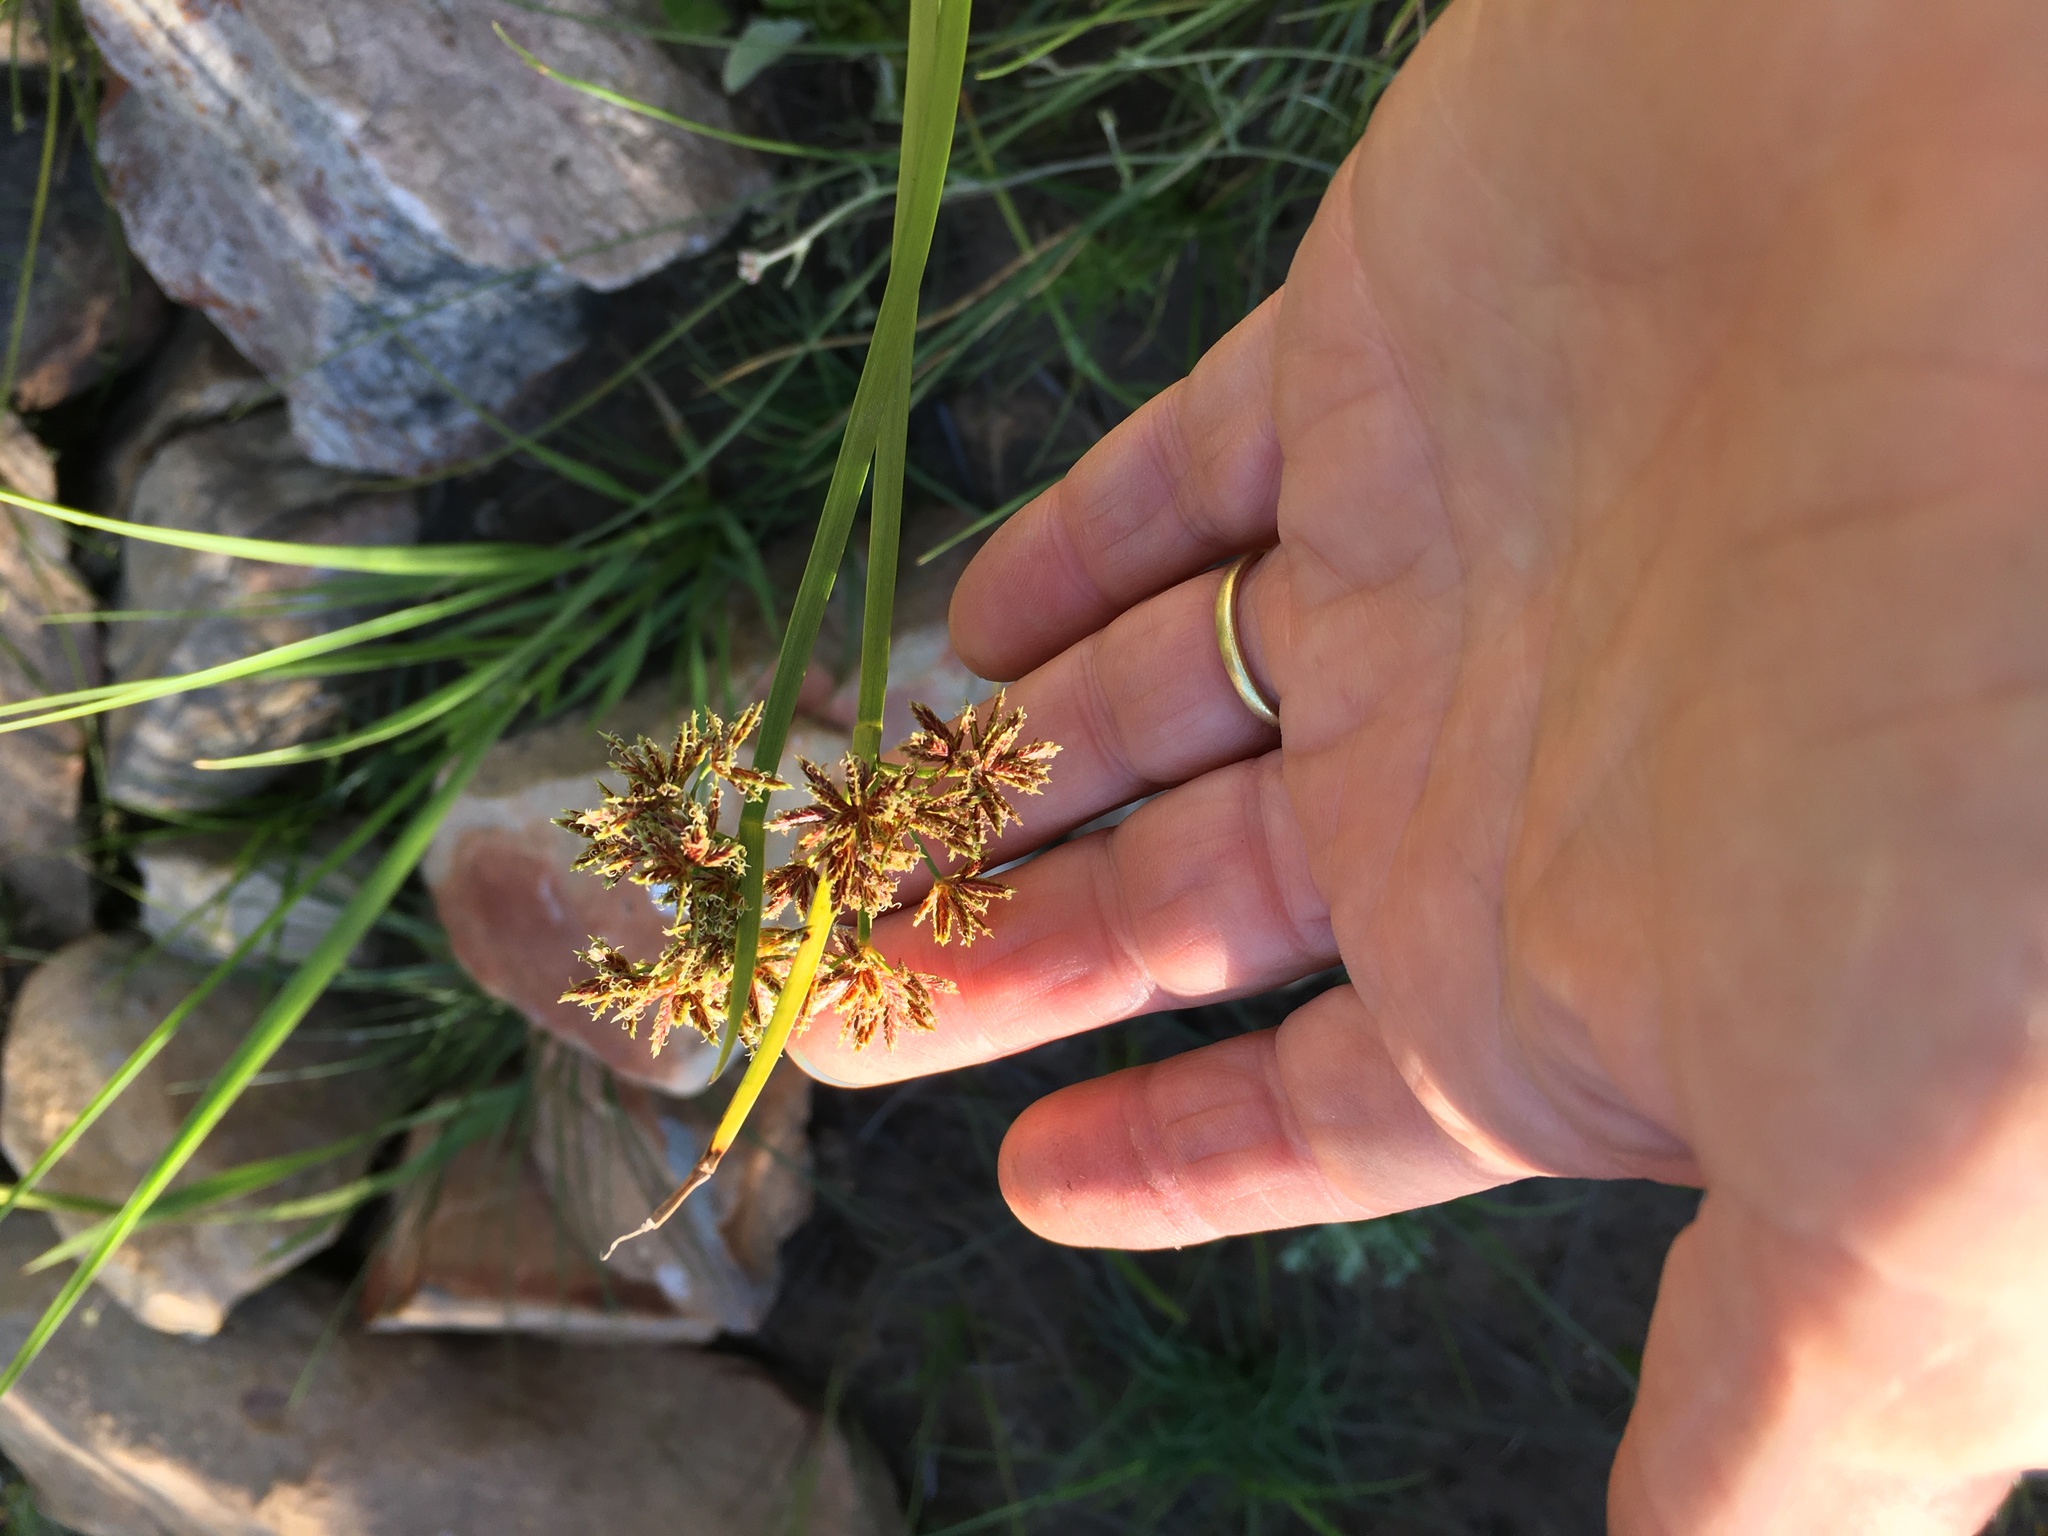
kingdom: Plantae
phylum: Tracheophyta
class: Liliopsida
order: Poales
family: Cyperaceae
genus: Cyperus
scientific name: Cyperus denudatus
